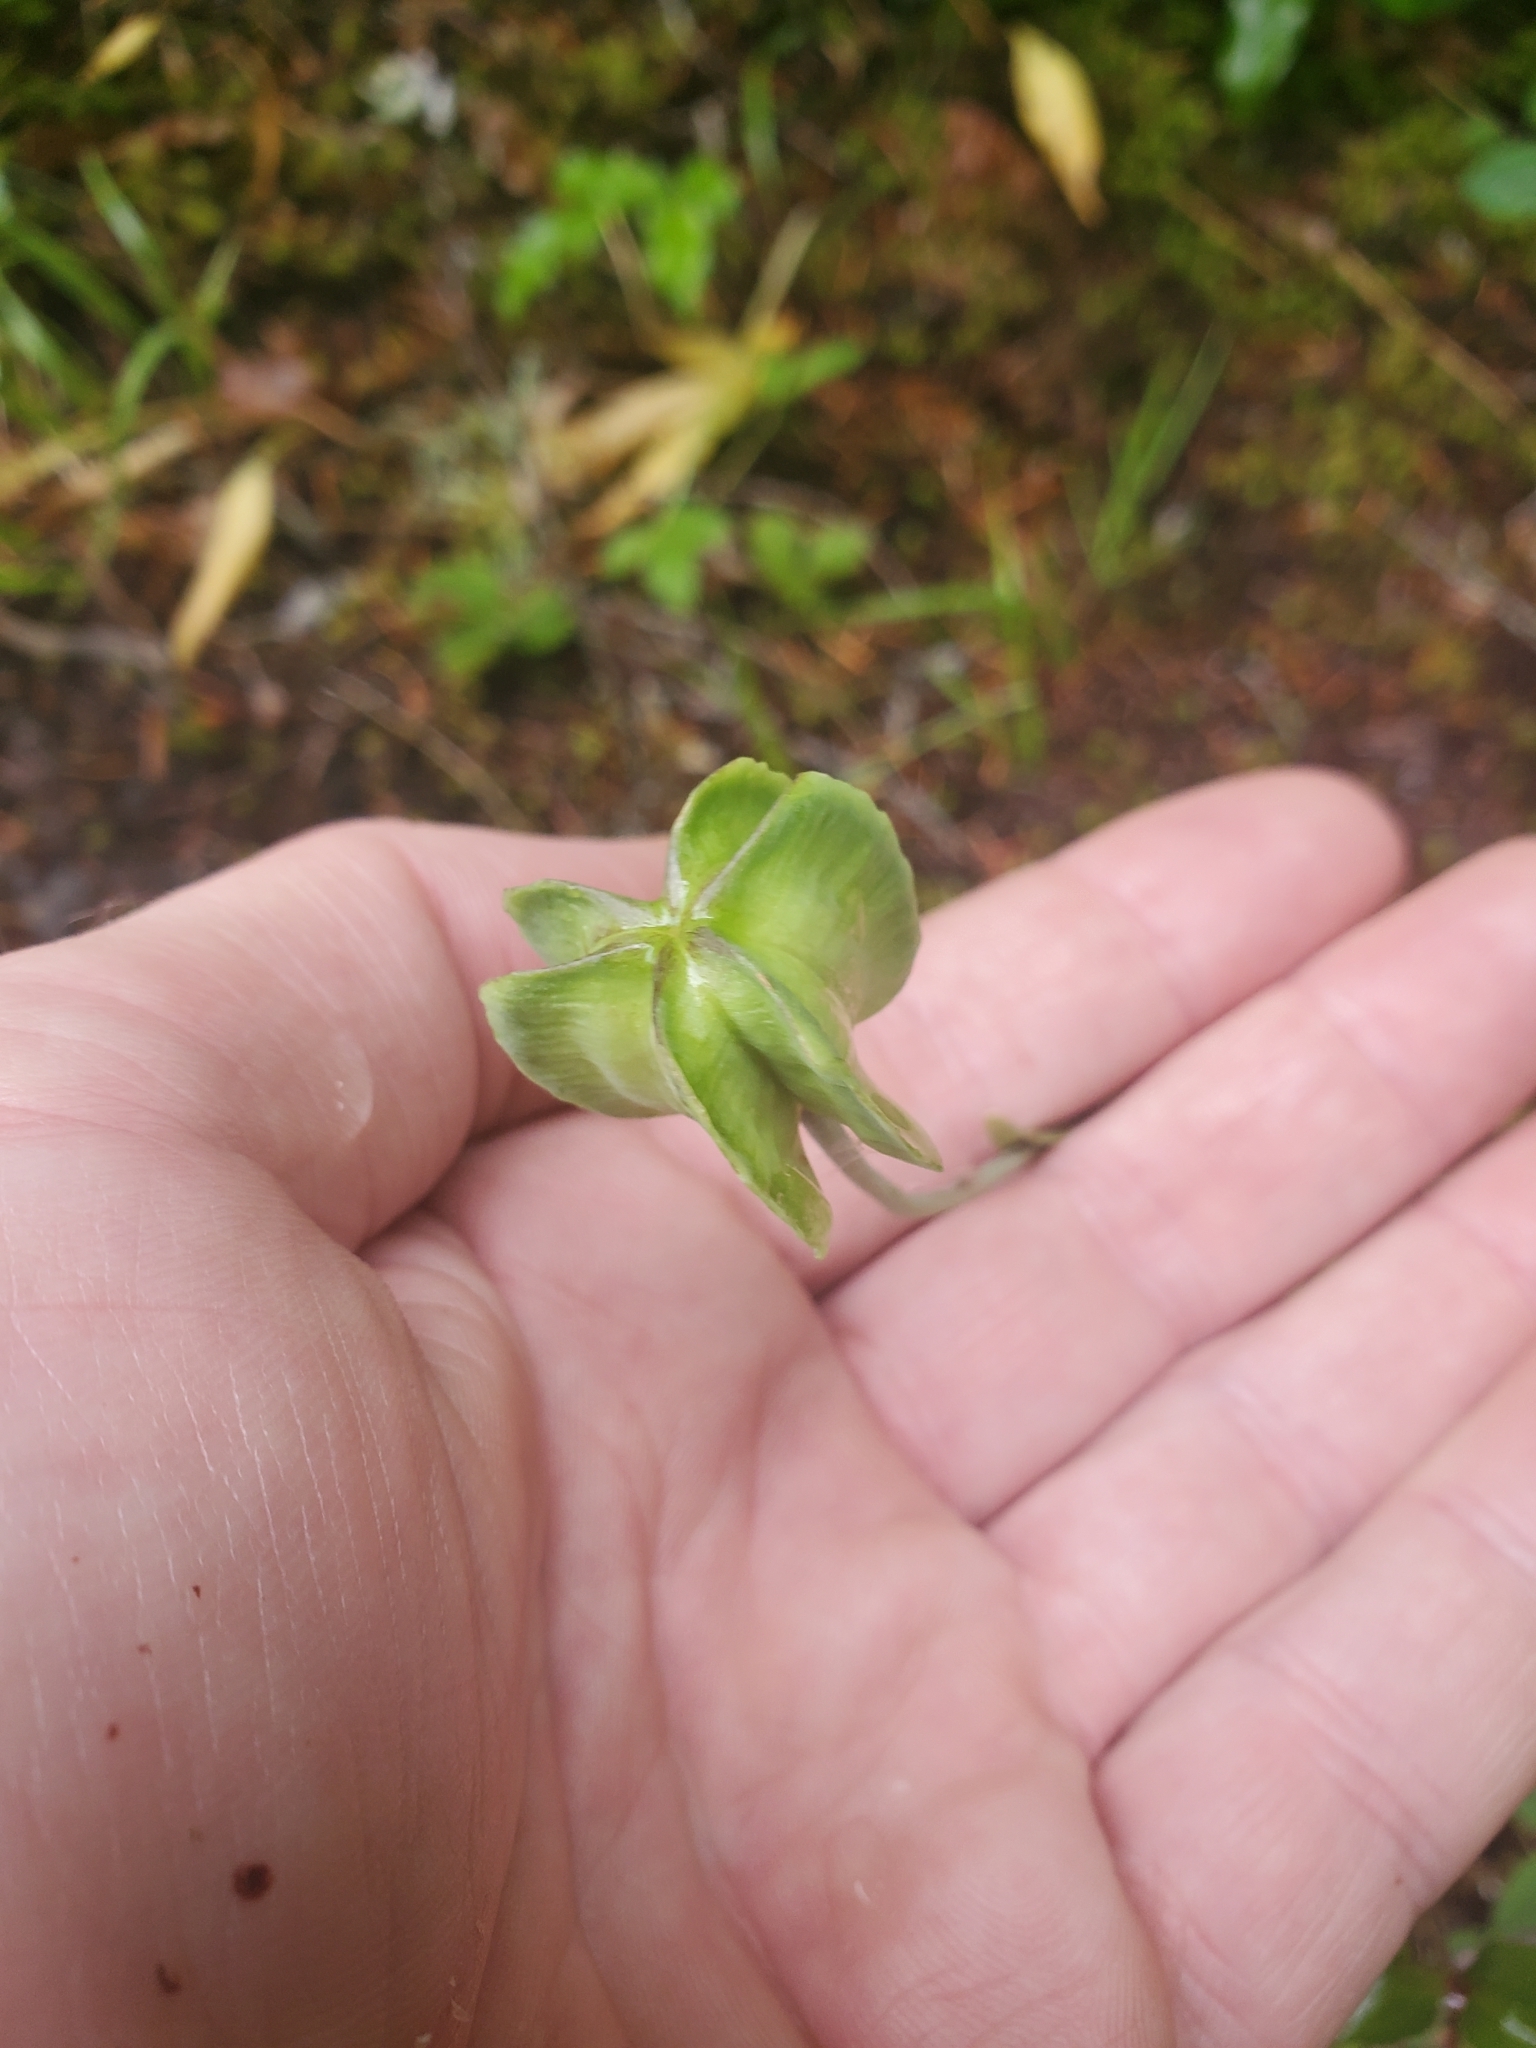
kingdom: Plantae
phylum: Tracheophyta
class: Liliopsida
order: Liliales
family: Liliaceae
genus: Fritillaria
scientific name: Fritillaria affinis
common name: Ojai fritillary
